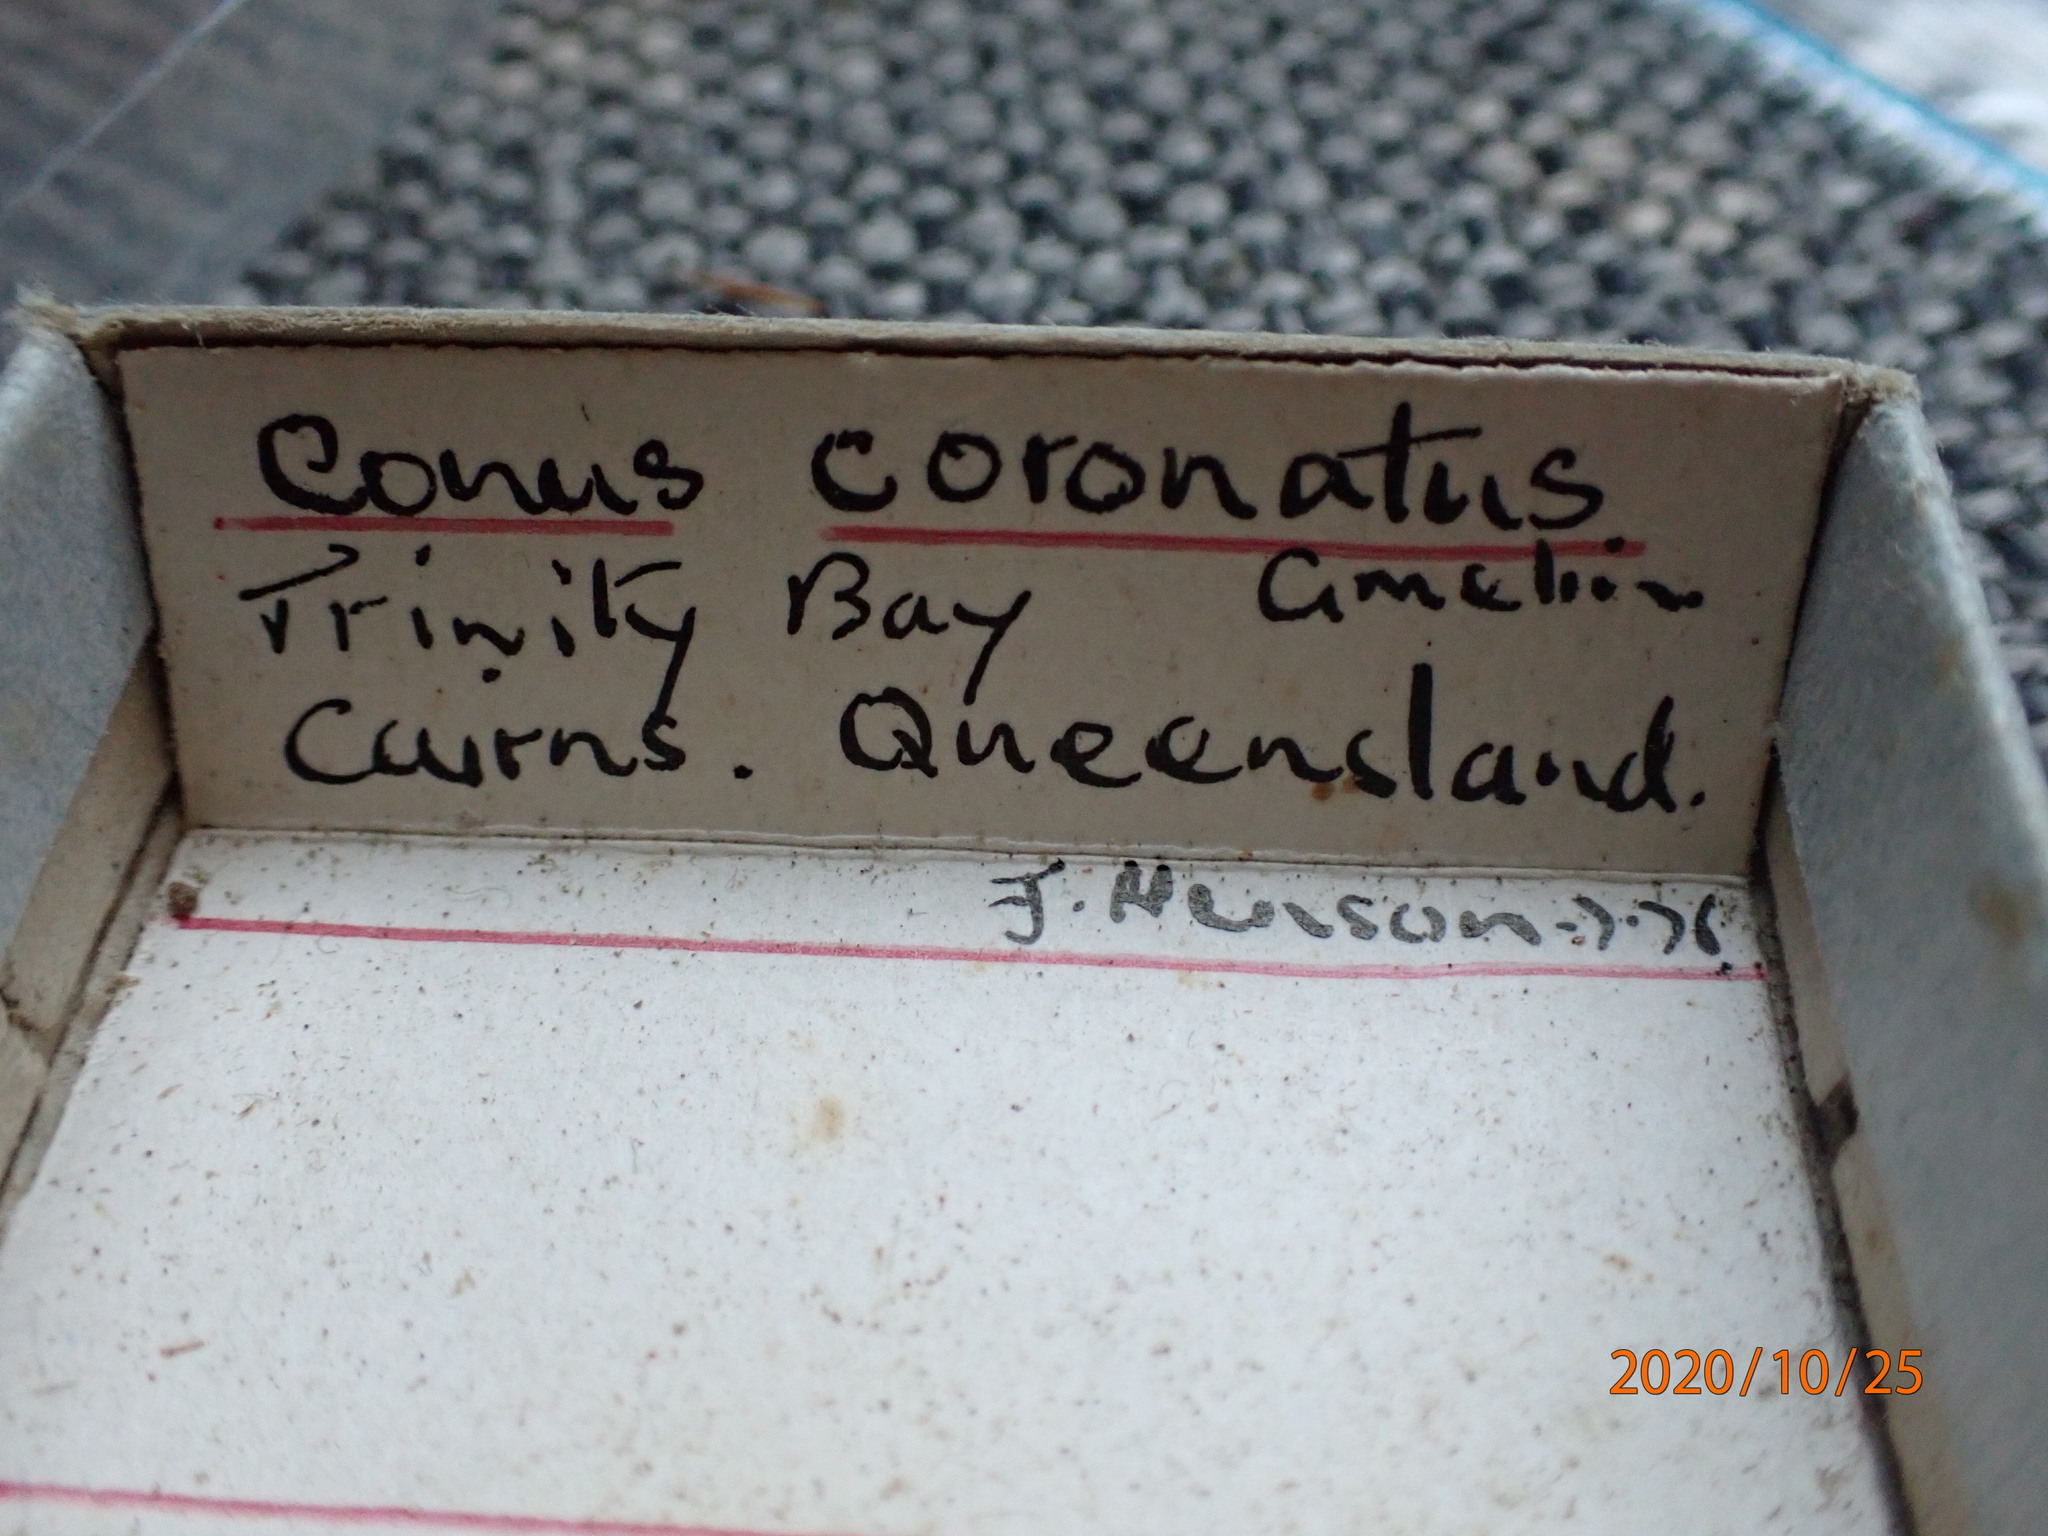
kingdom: Animalia
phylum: Mollusca
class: Gastropoda
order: Neogastropoda
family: Conidae
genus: Conus
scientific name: Conus coronatus
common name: Coronated cone
